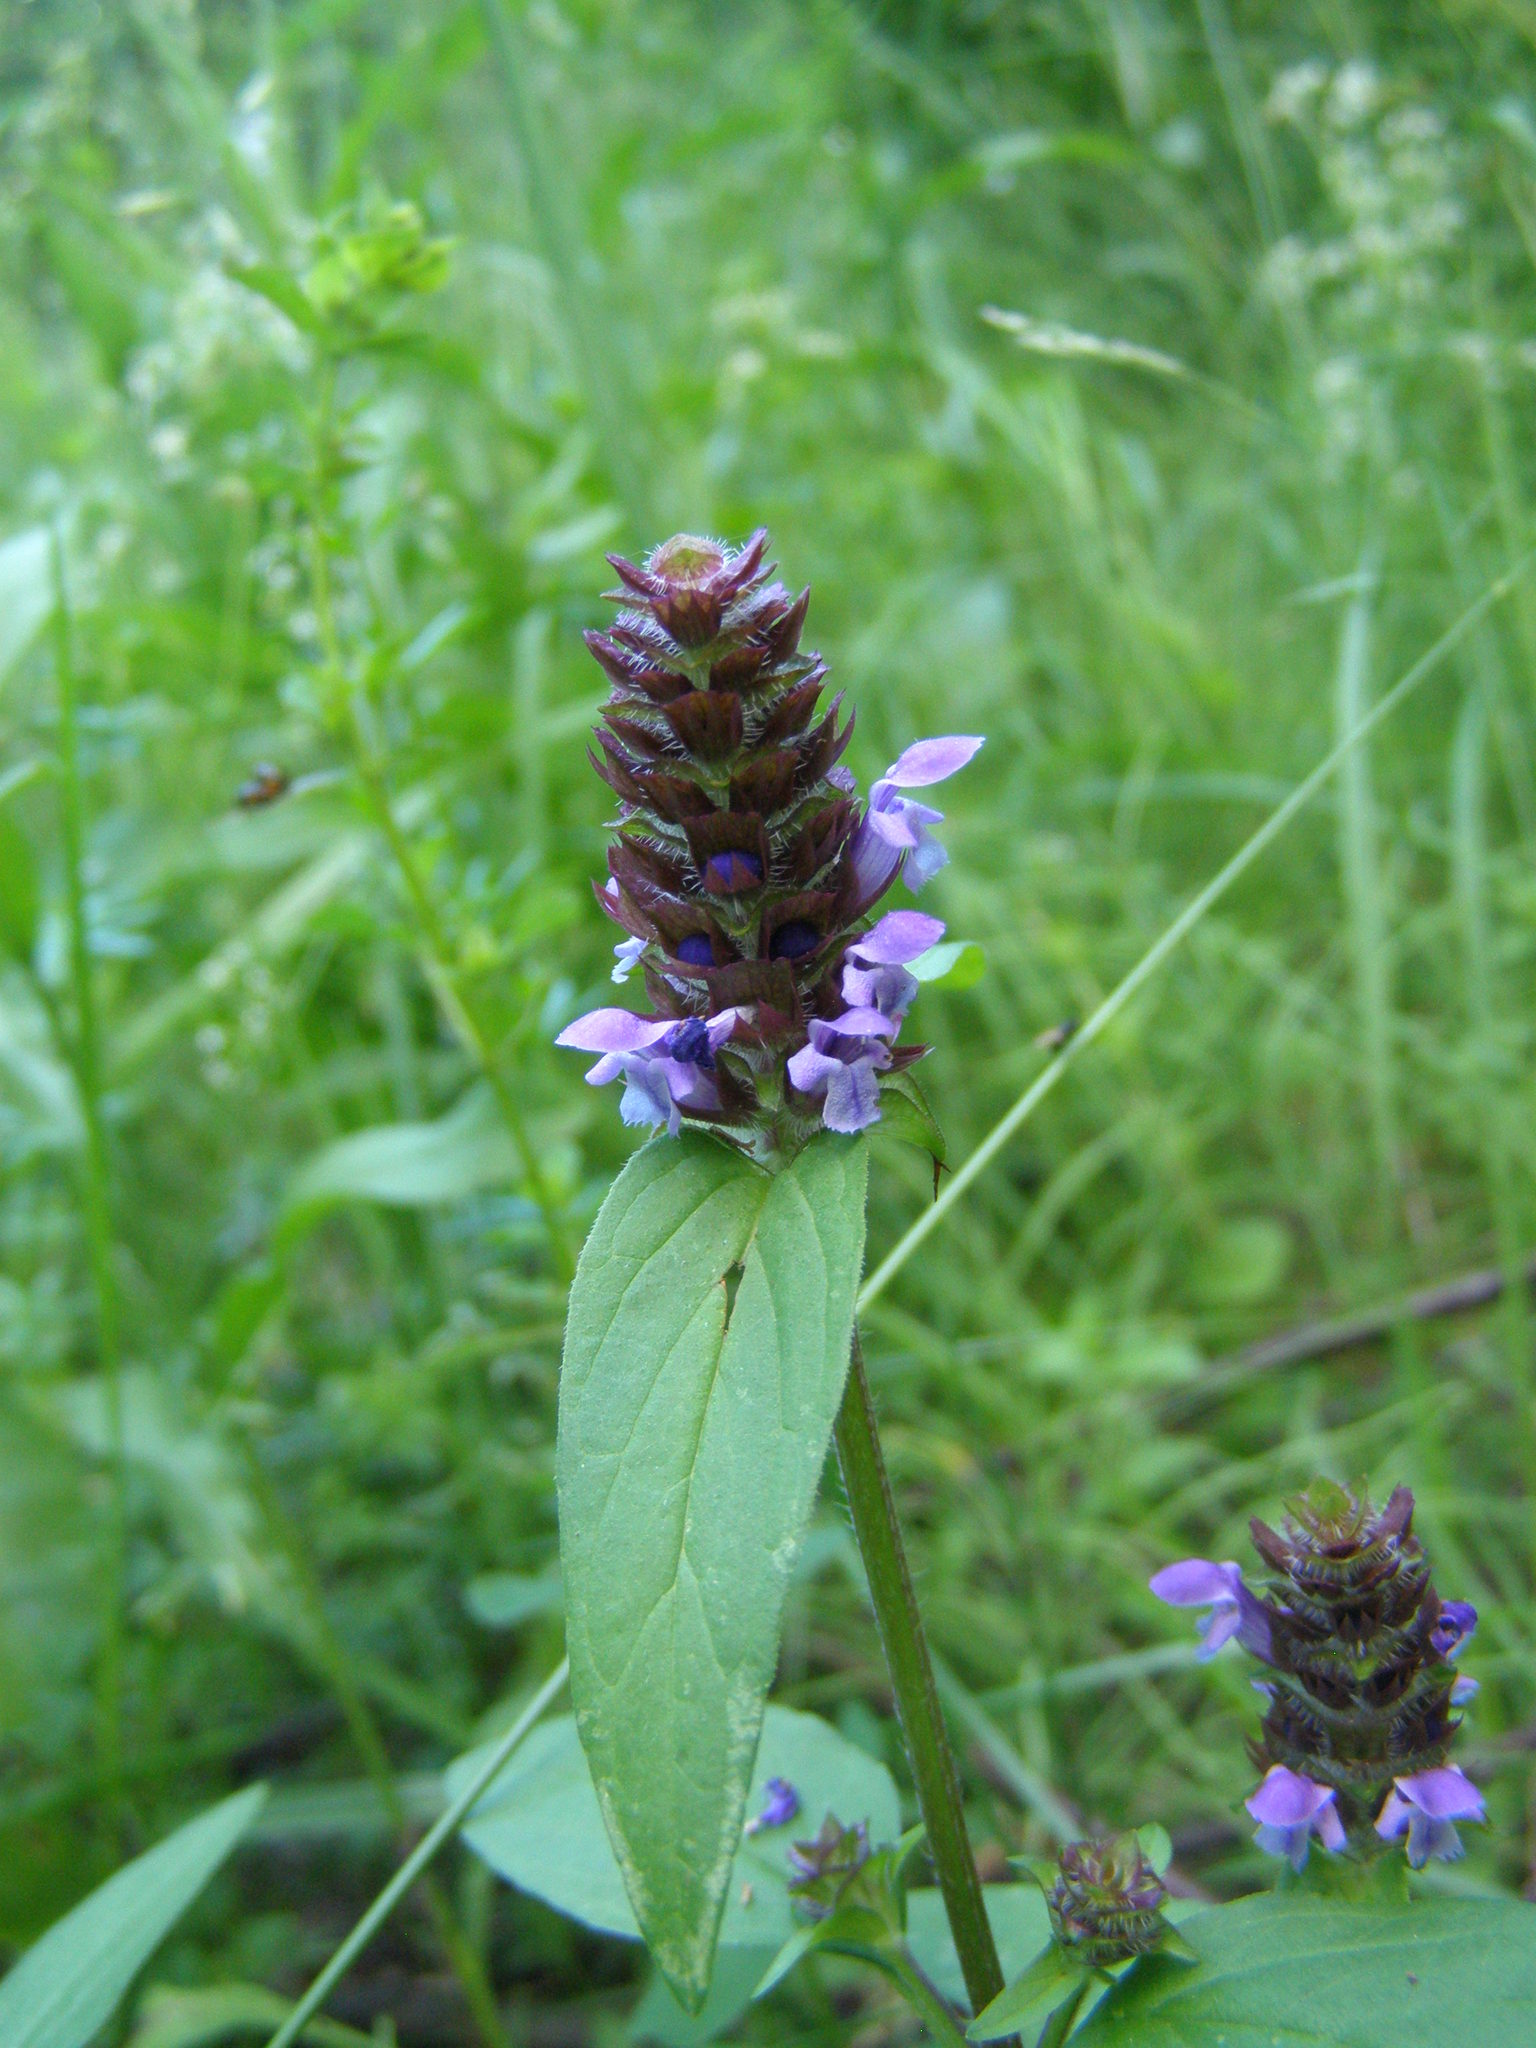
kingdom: Plantae
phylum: Tracheophyta
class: Magnoliopsida
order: Lamiales
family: Lamiaceae
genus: Prunella
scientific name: Prunella vulgaris
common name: Heal-all
